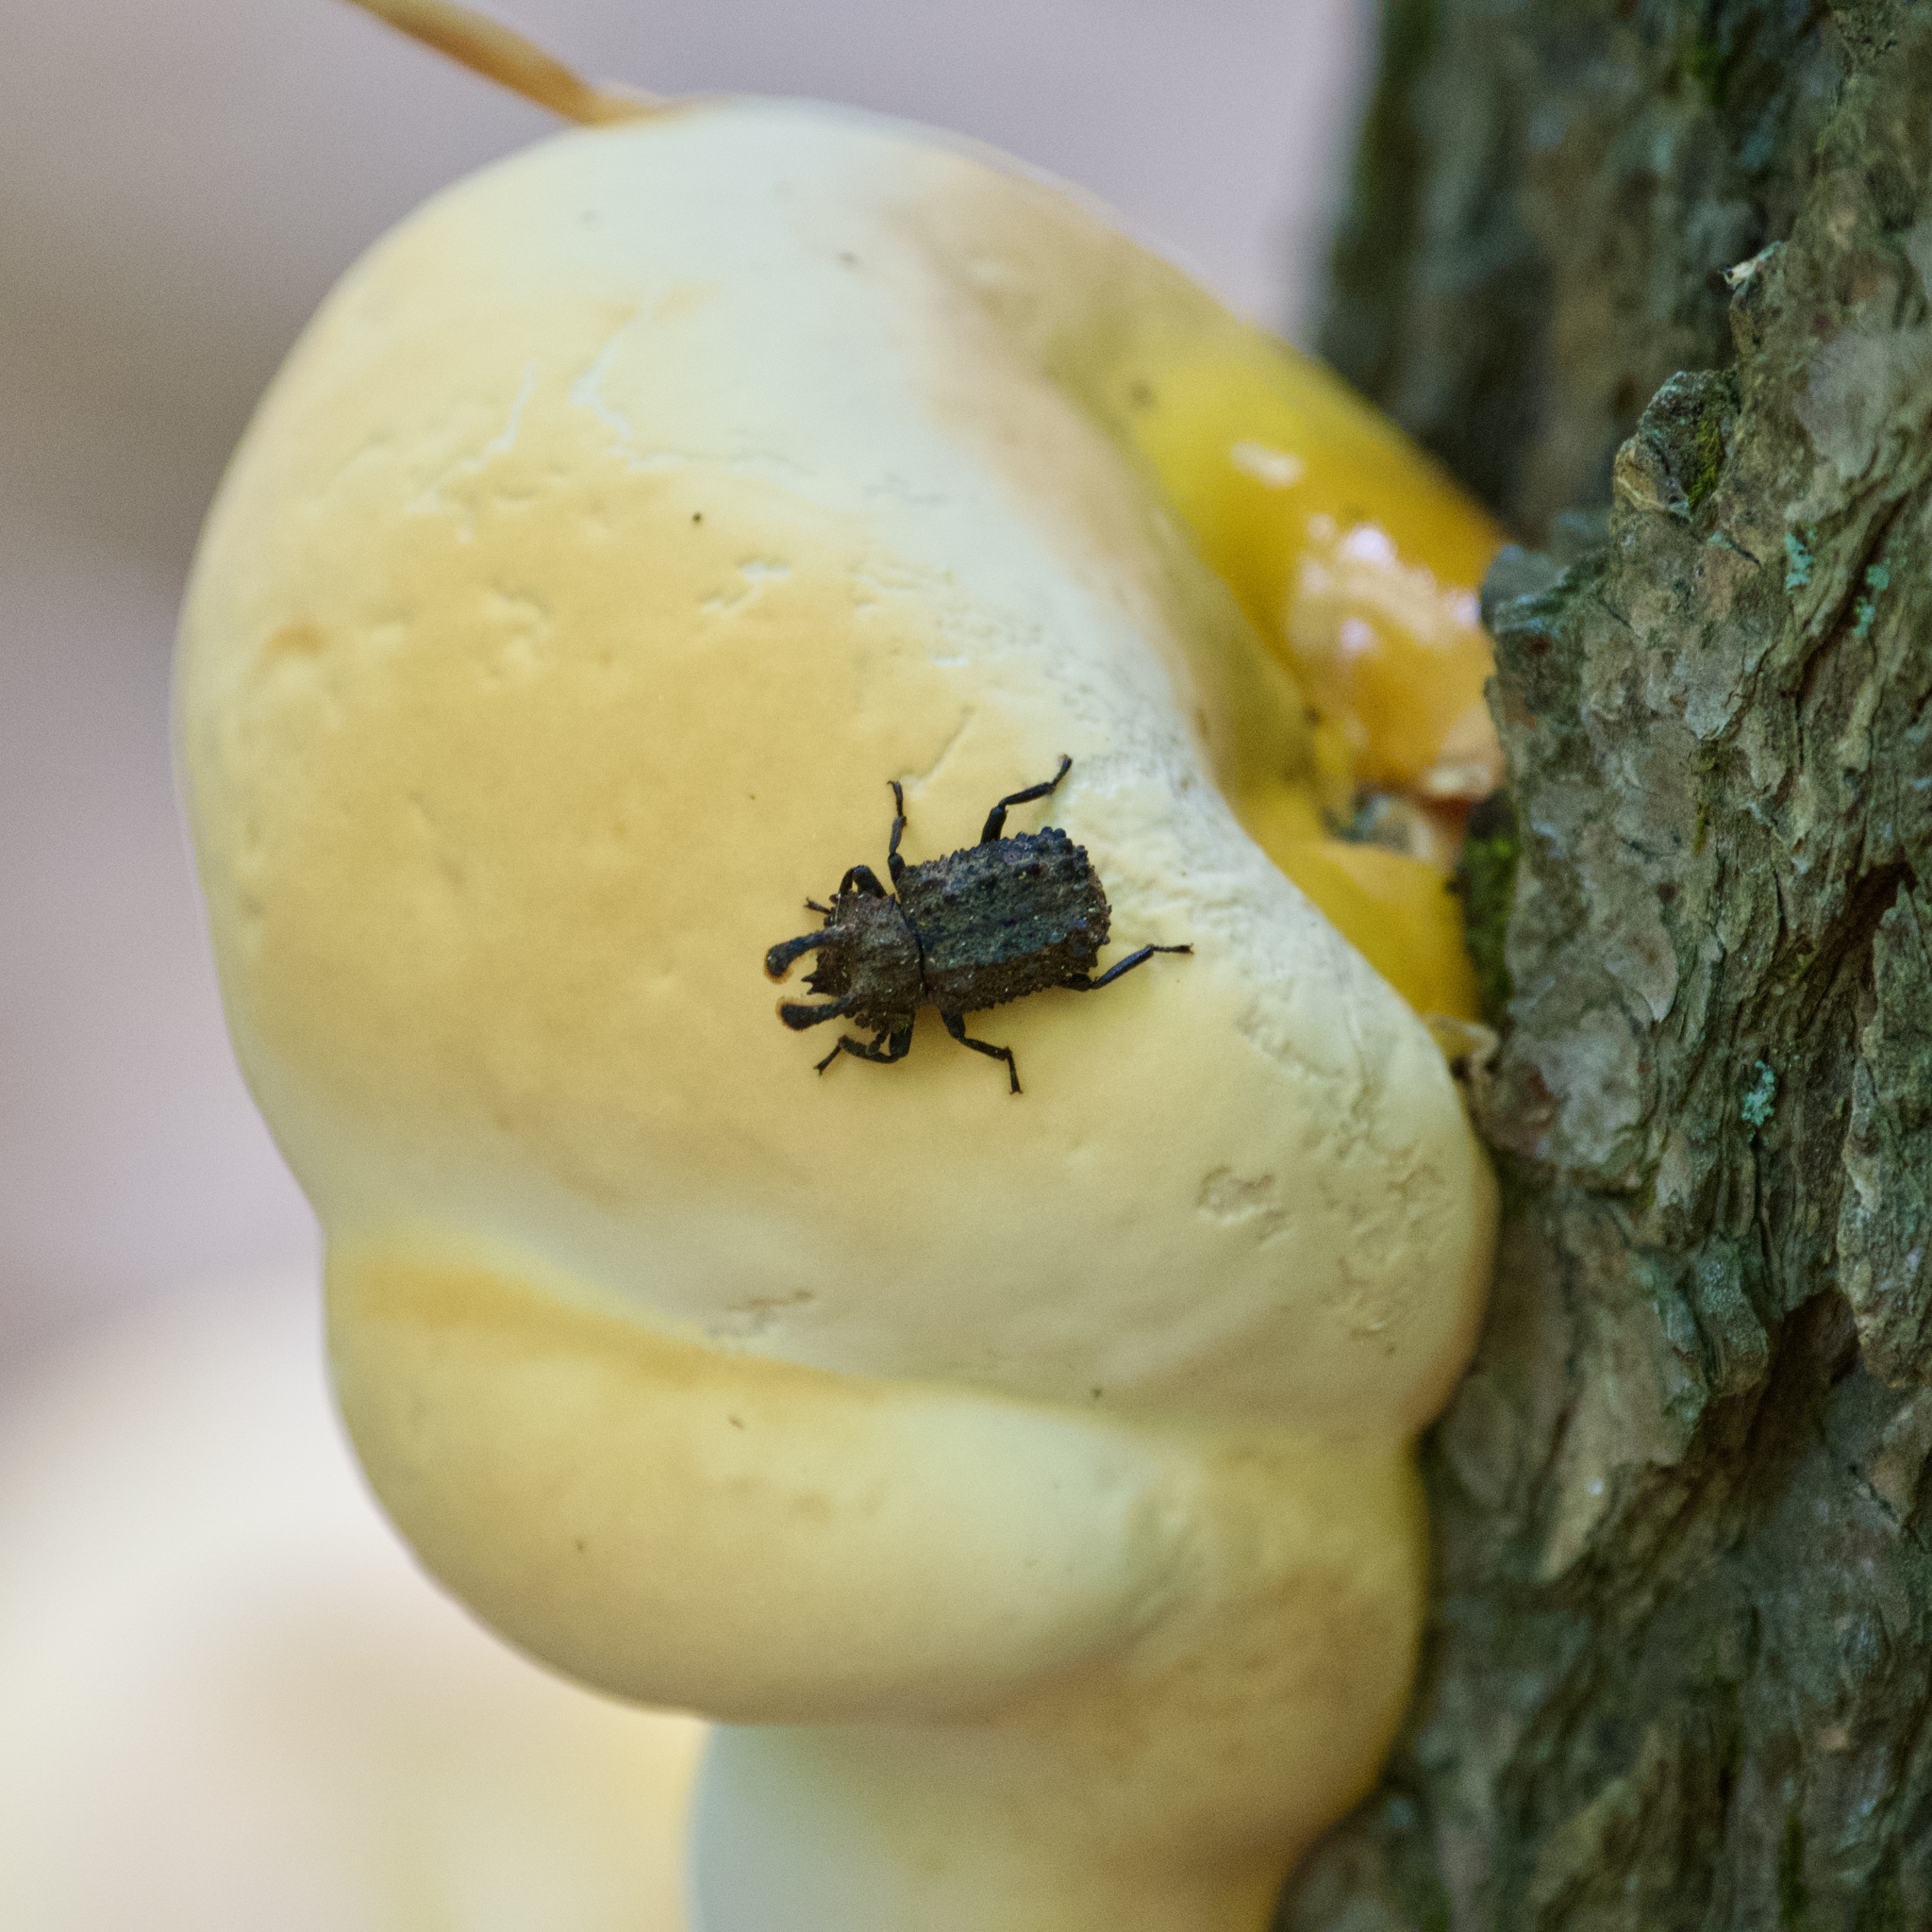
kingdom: Animalia
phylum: Arthropoda
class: Insecta
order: Coleoptera
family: Tenebrionidae
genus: Gnatocerus
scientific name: Gnatocerus cornutus
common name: Broad-horned flour beetle
